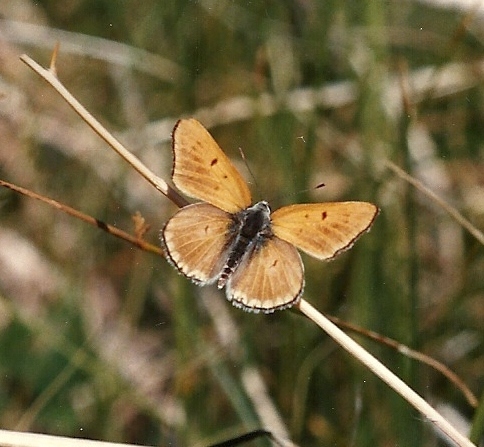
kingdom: Animalia
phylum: Arthropoda
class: Insecta
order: Lepidoptera
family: Lycaenidae
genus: Tharsalea
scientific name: Tharsalea rubidus
